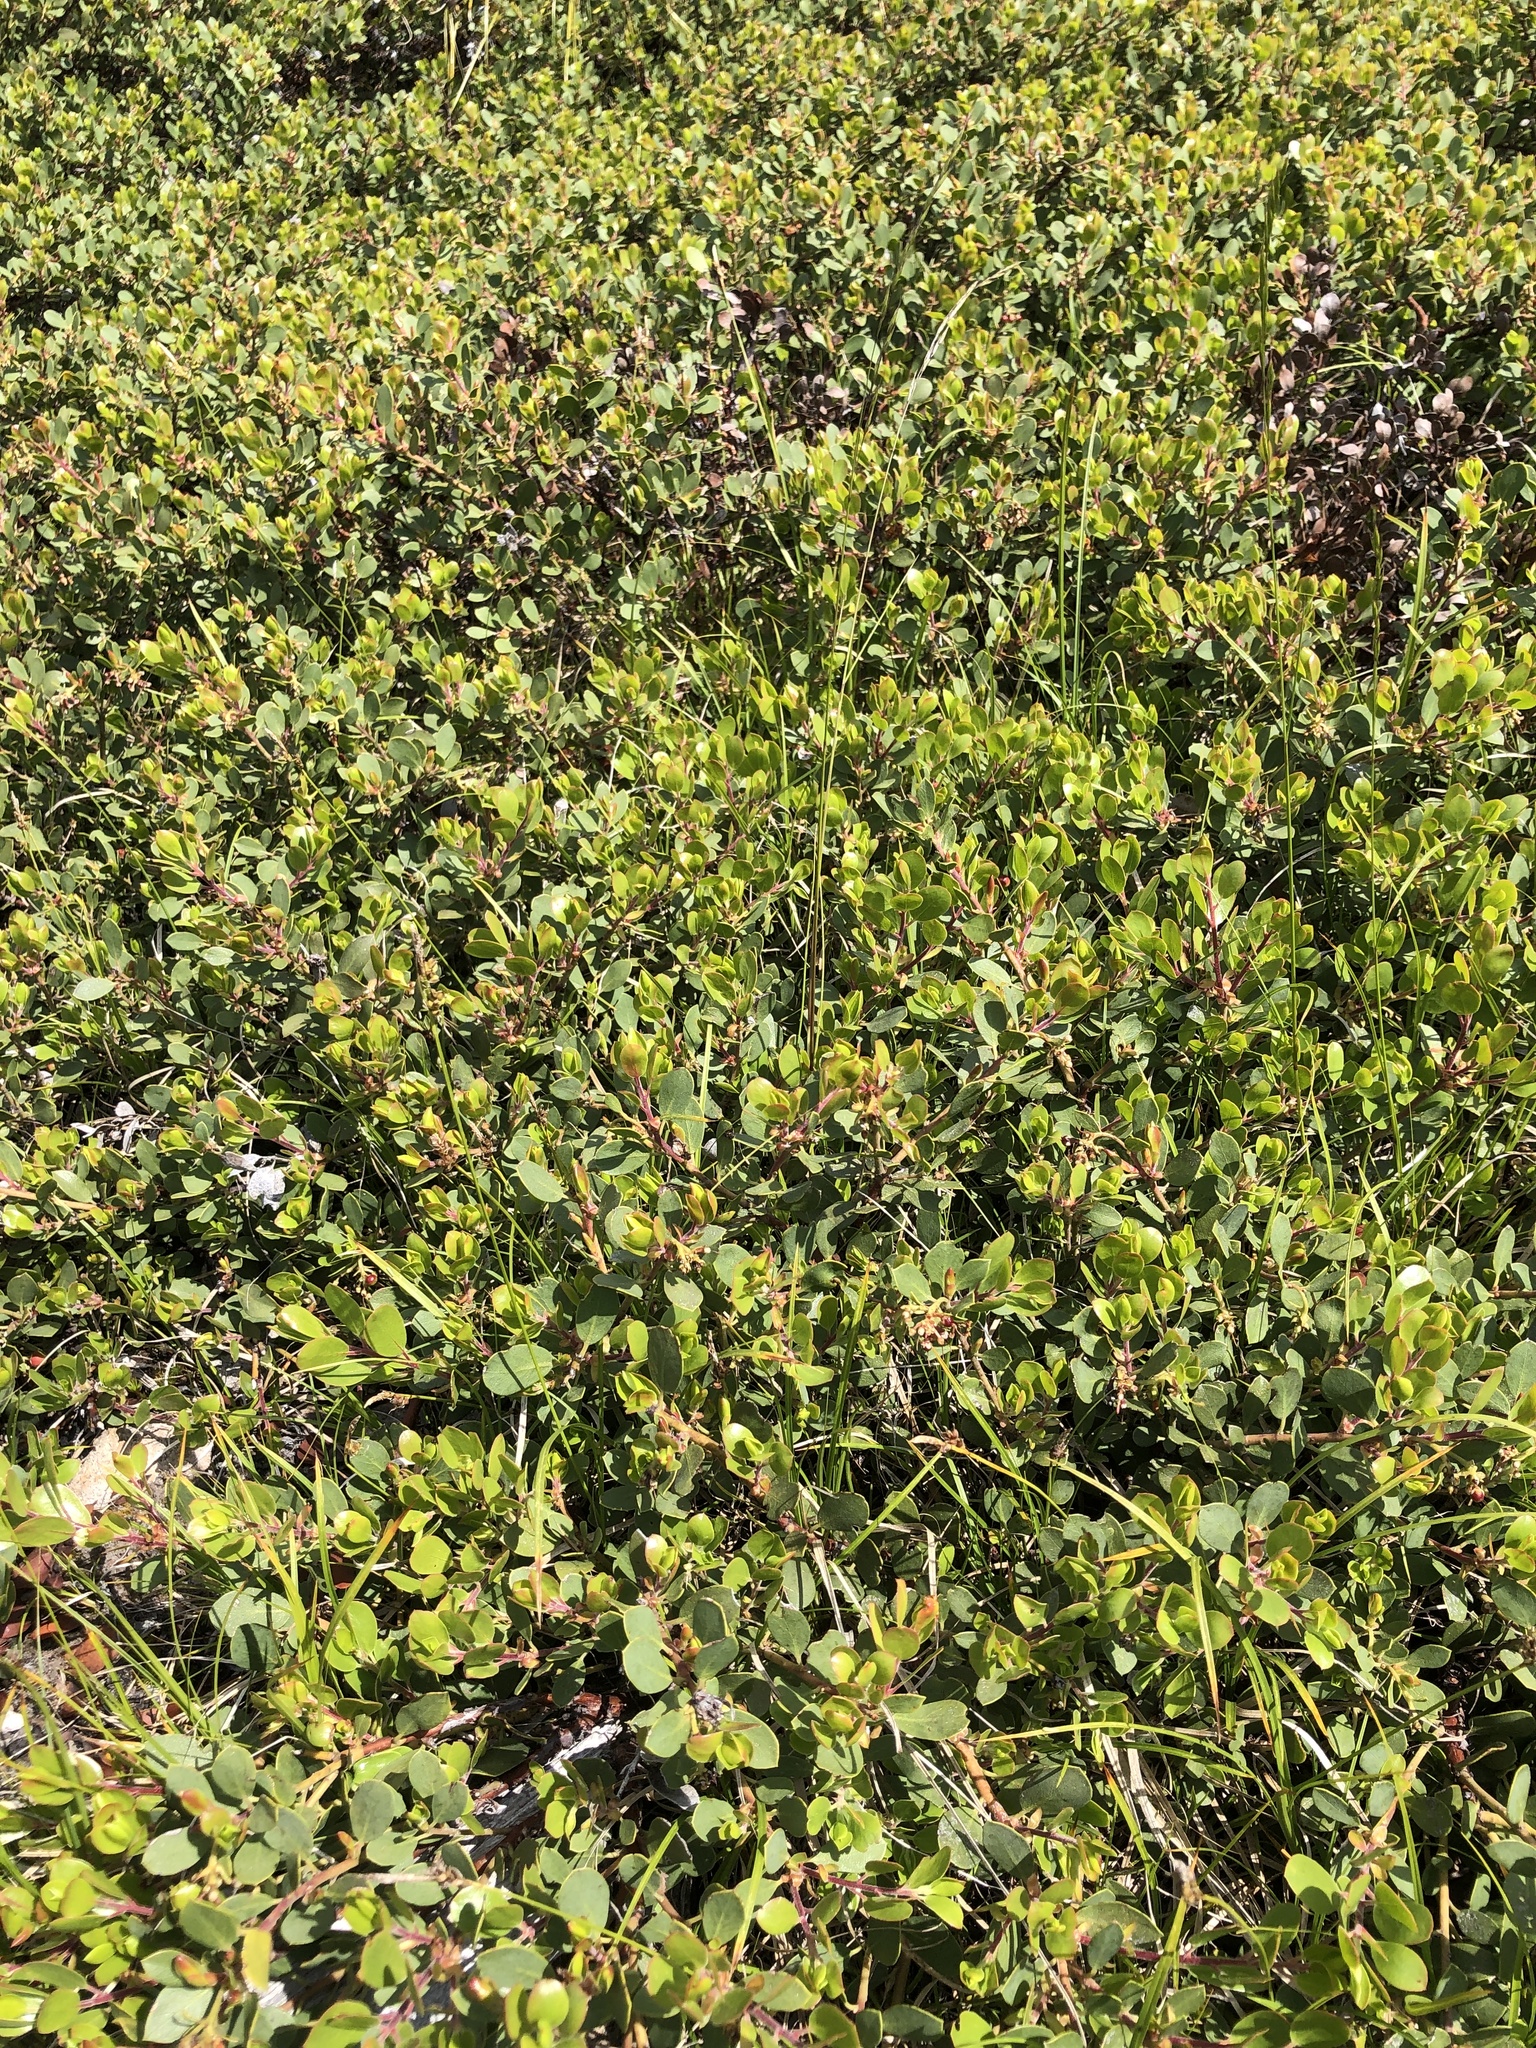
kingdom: Plantae
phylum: Tracheophyta
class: Magnoliopsida
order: Ericales
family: Ericaceae
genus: Vaccinium
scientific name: Vaccinium uliginosum
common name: Bog bilberry
